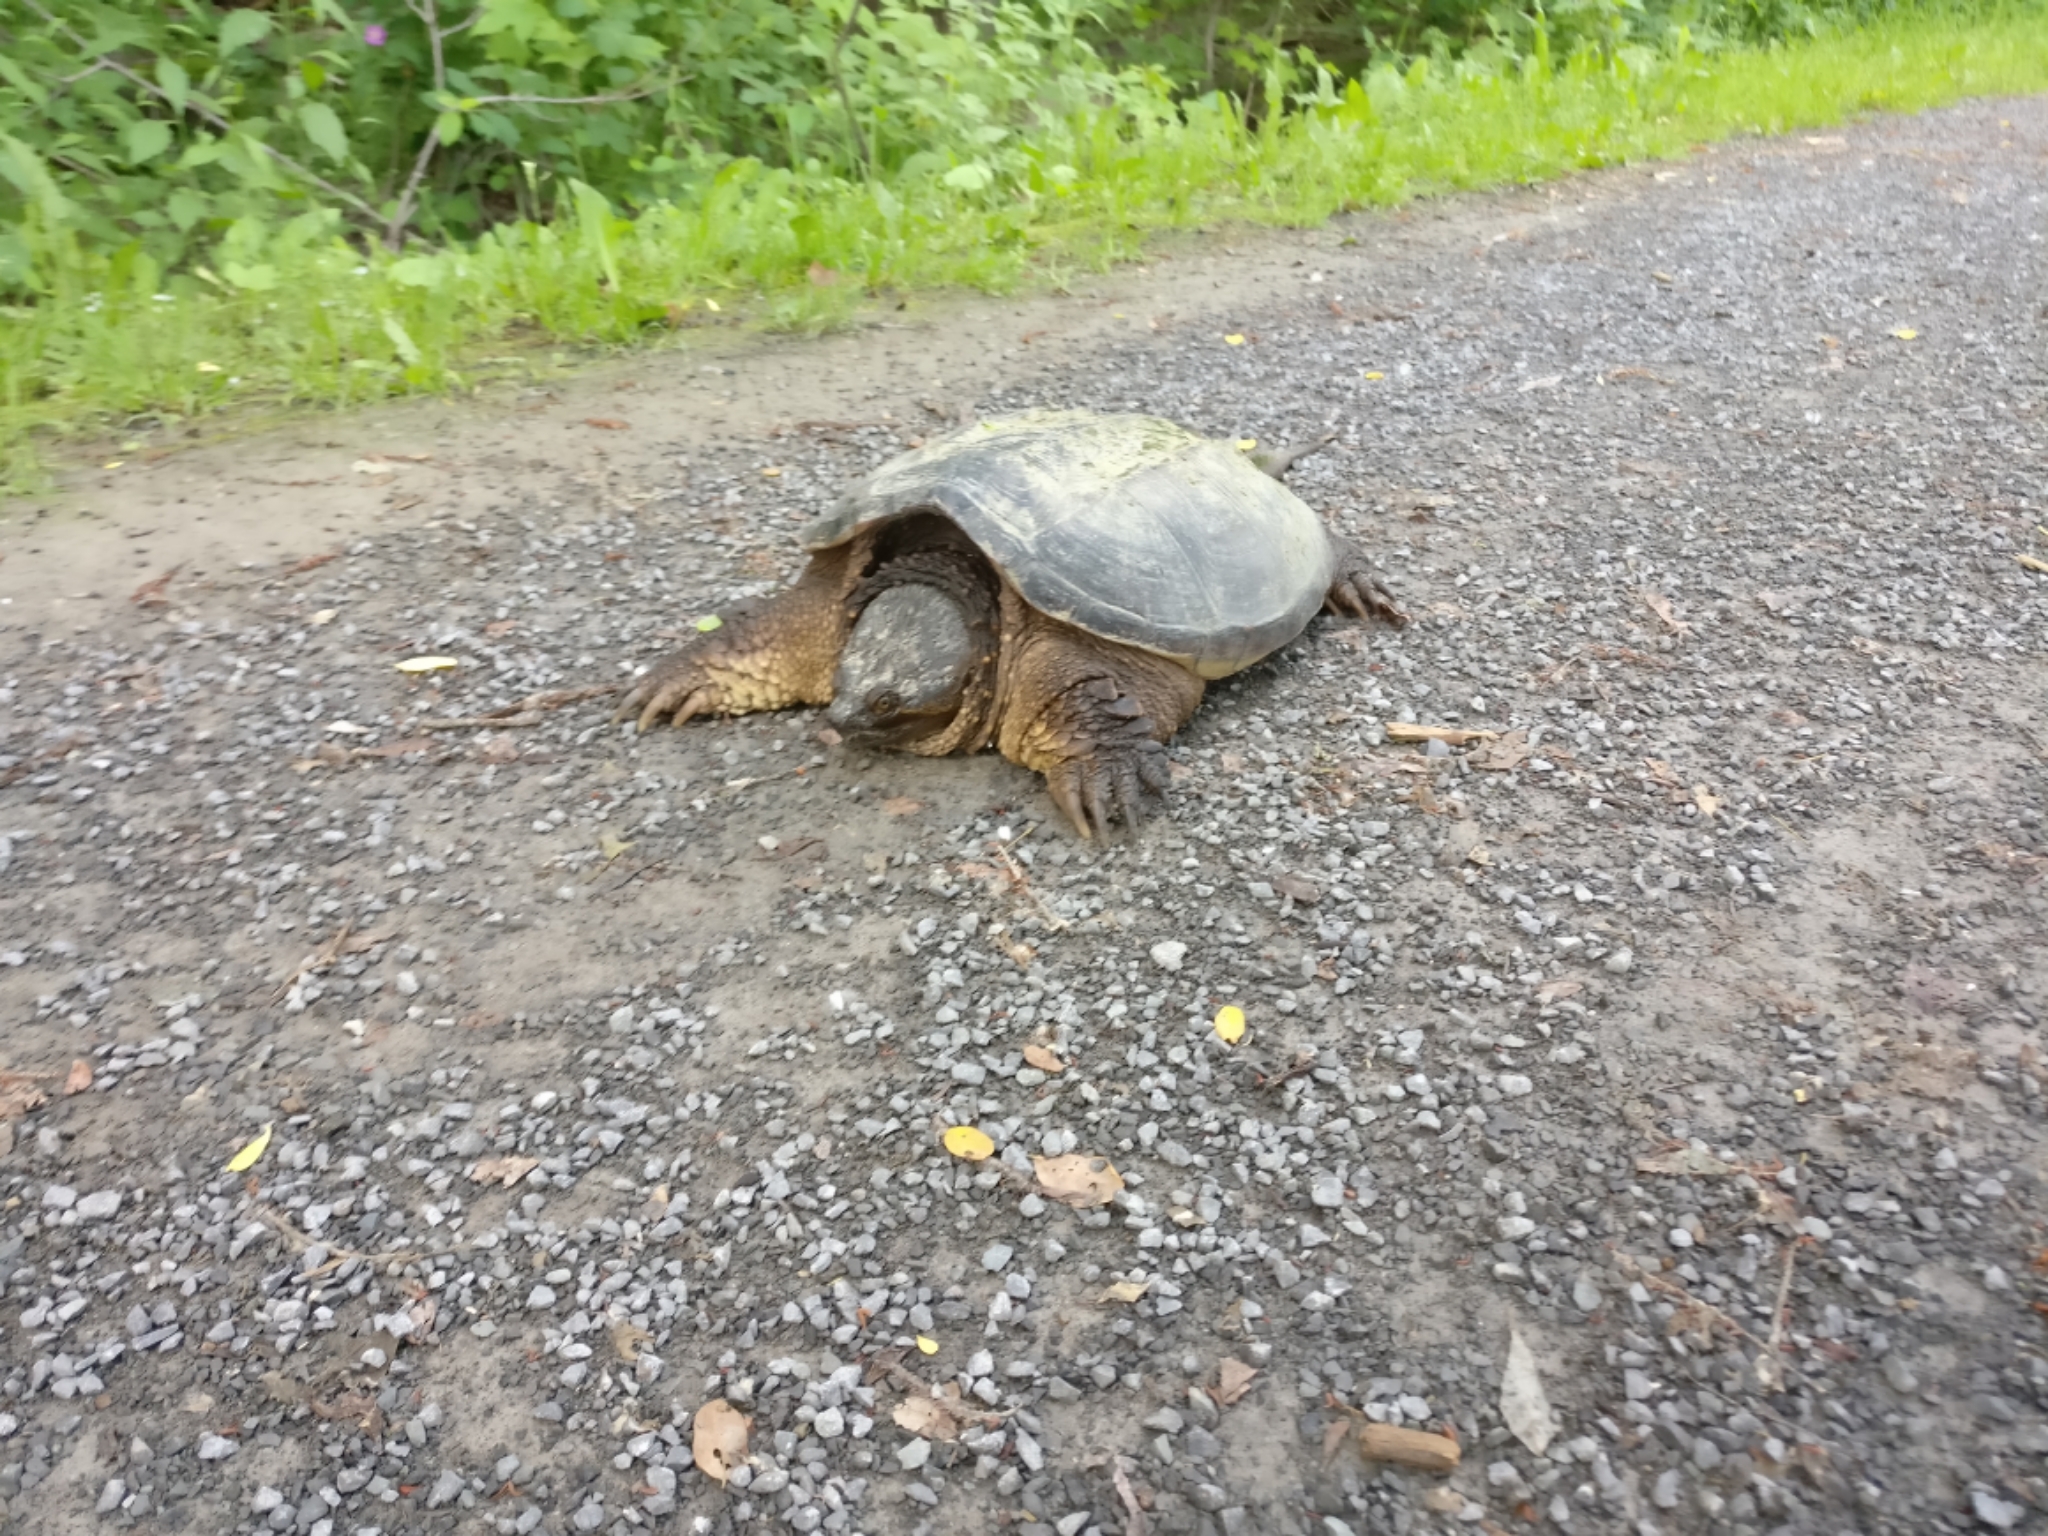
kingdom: Animalia
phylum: Chordata
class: Testudines
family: Chelydridae
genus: Chelydra
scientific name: Chelydra serpentina
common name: Common snapping turtle
